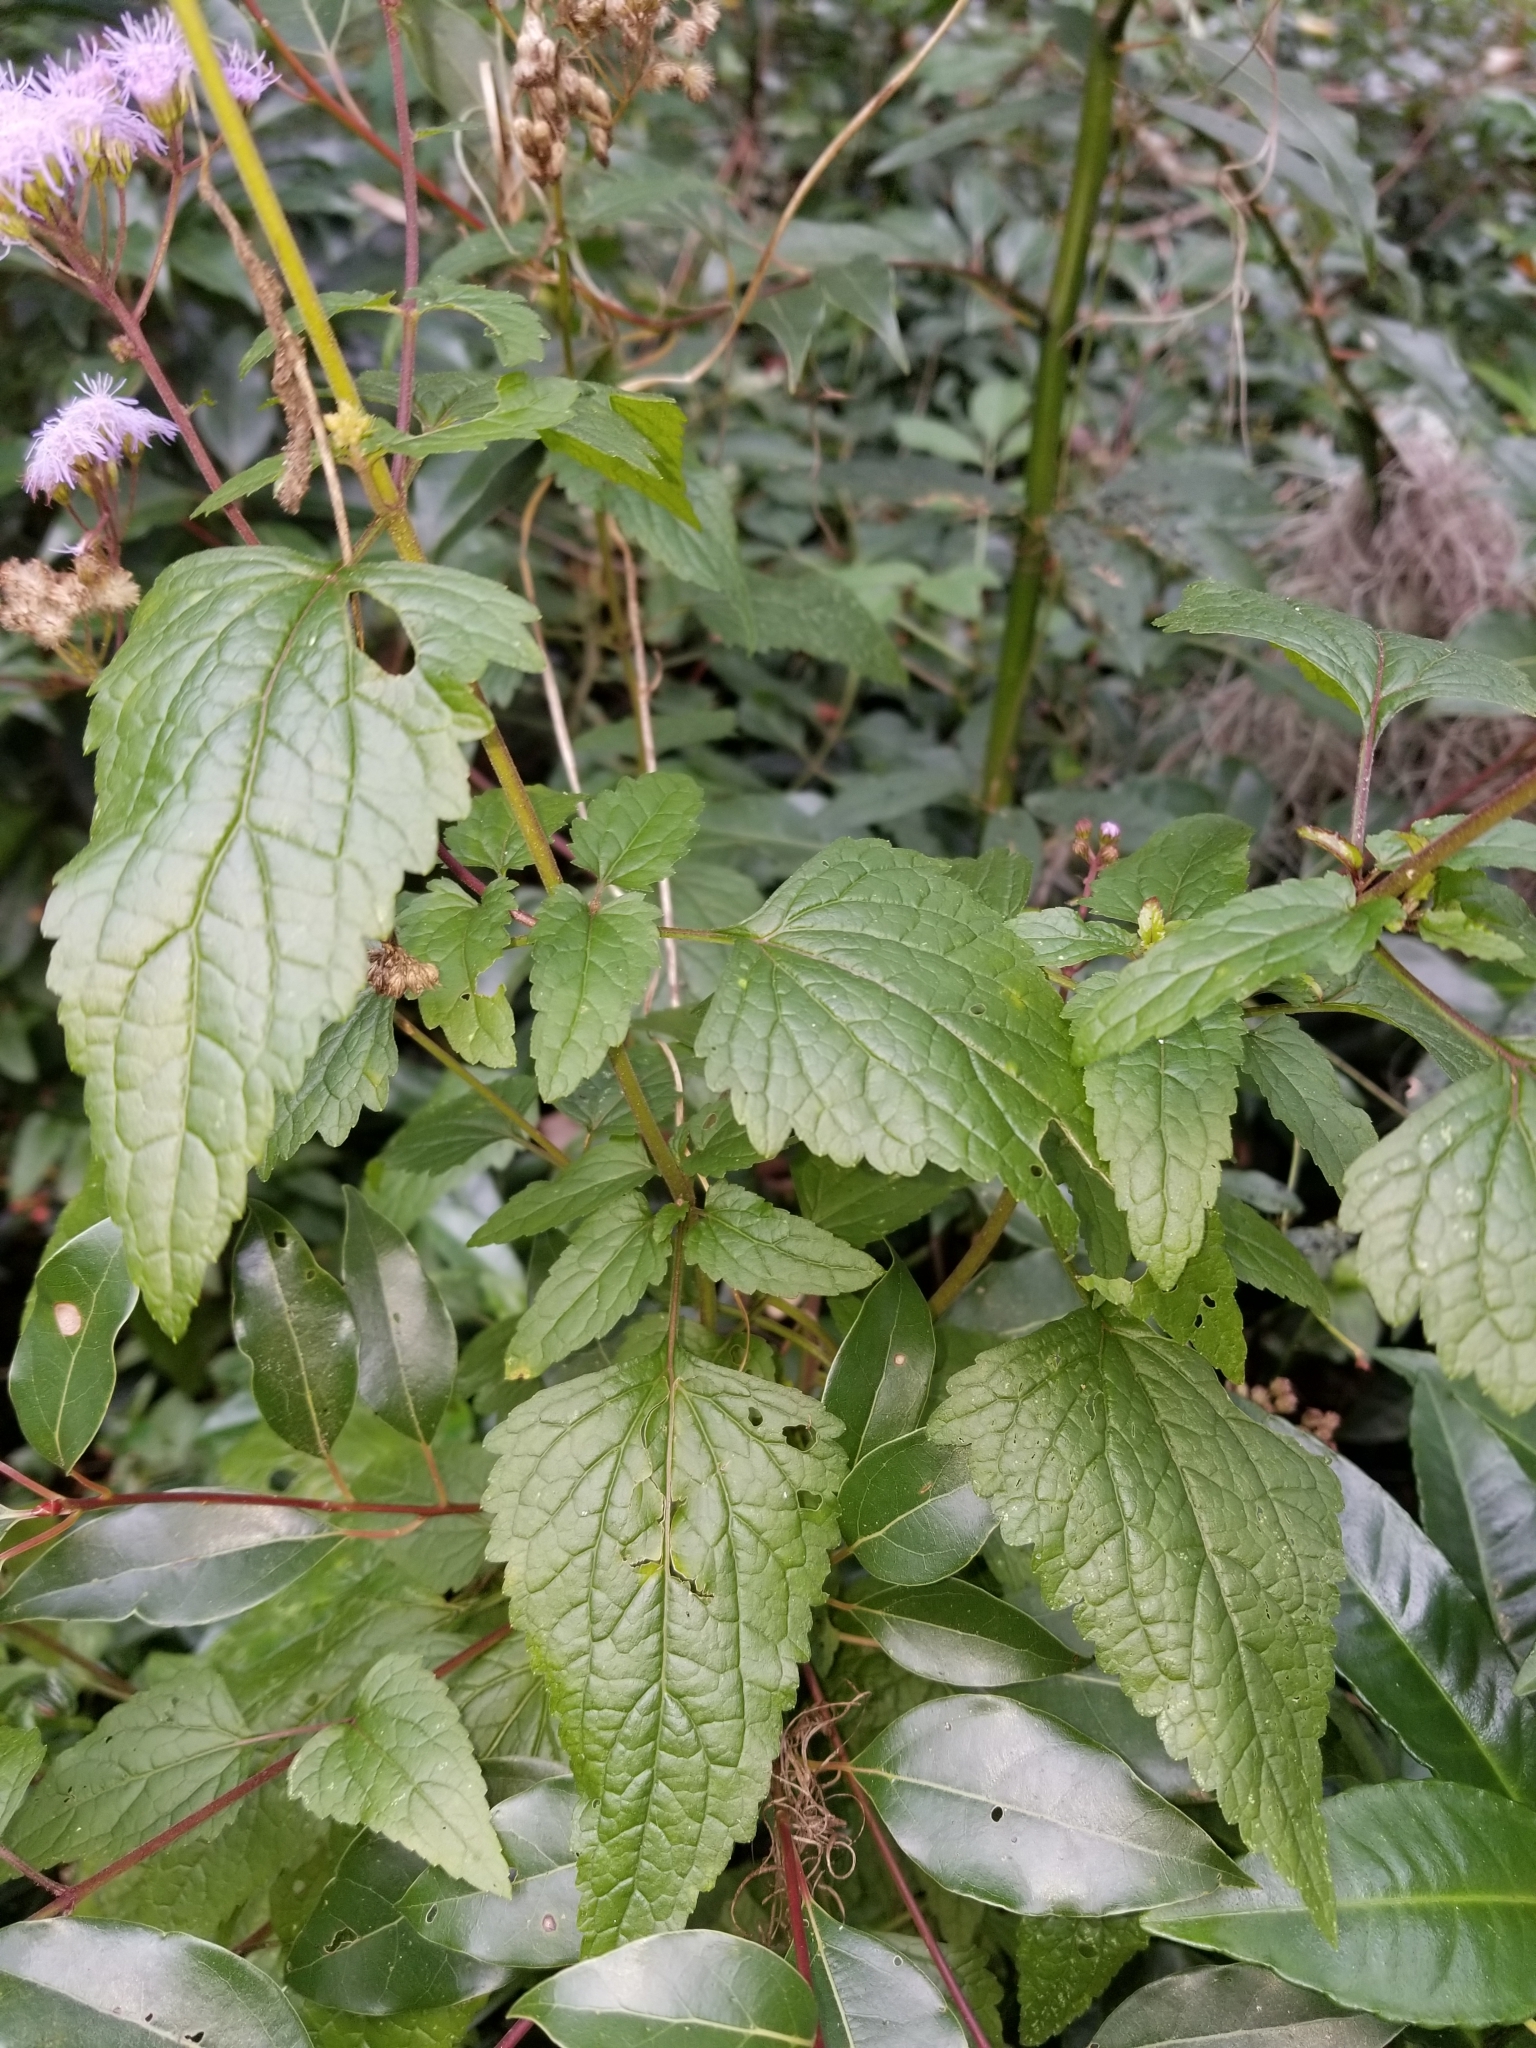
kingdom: Plantae
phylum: Tracheophyta
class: Magnoliopsida
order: Asterales
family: Asteraceae
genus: Conoclinium
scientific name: Conoclinium coelestinum
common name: Blue mistflower
